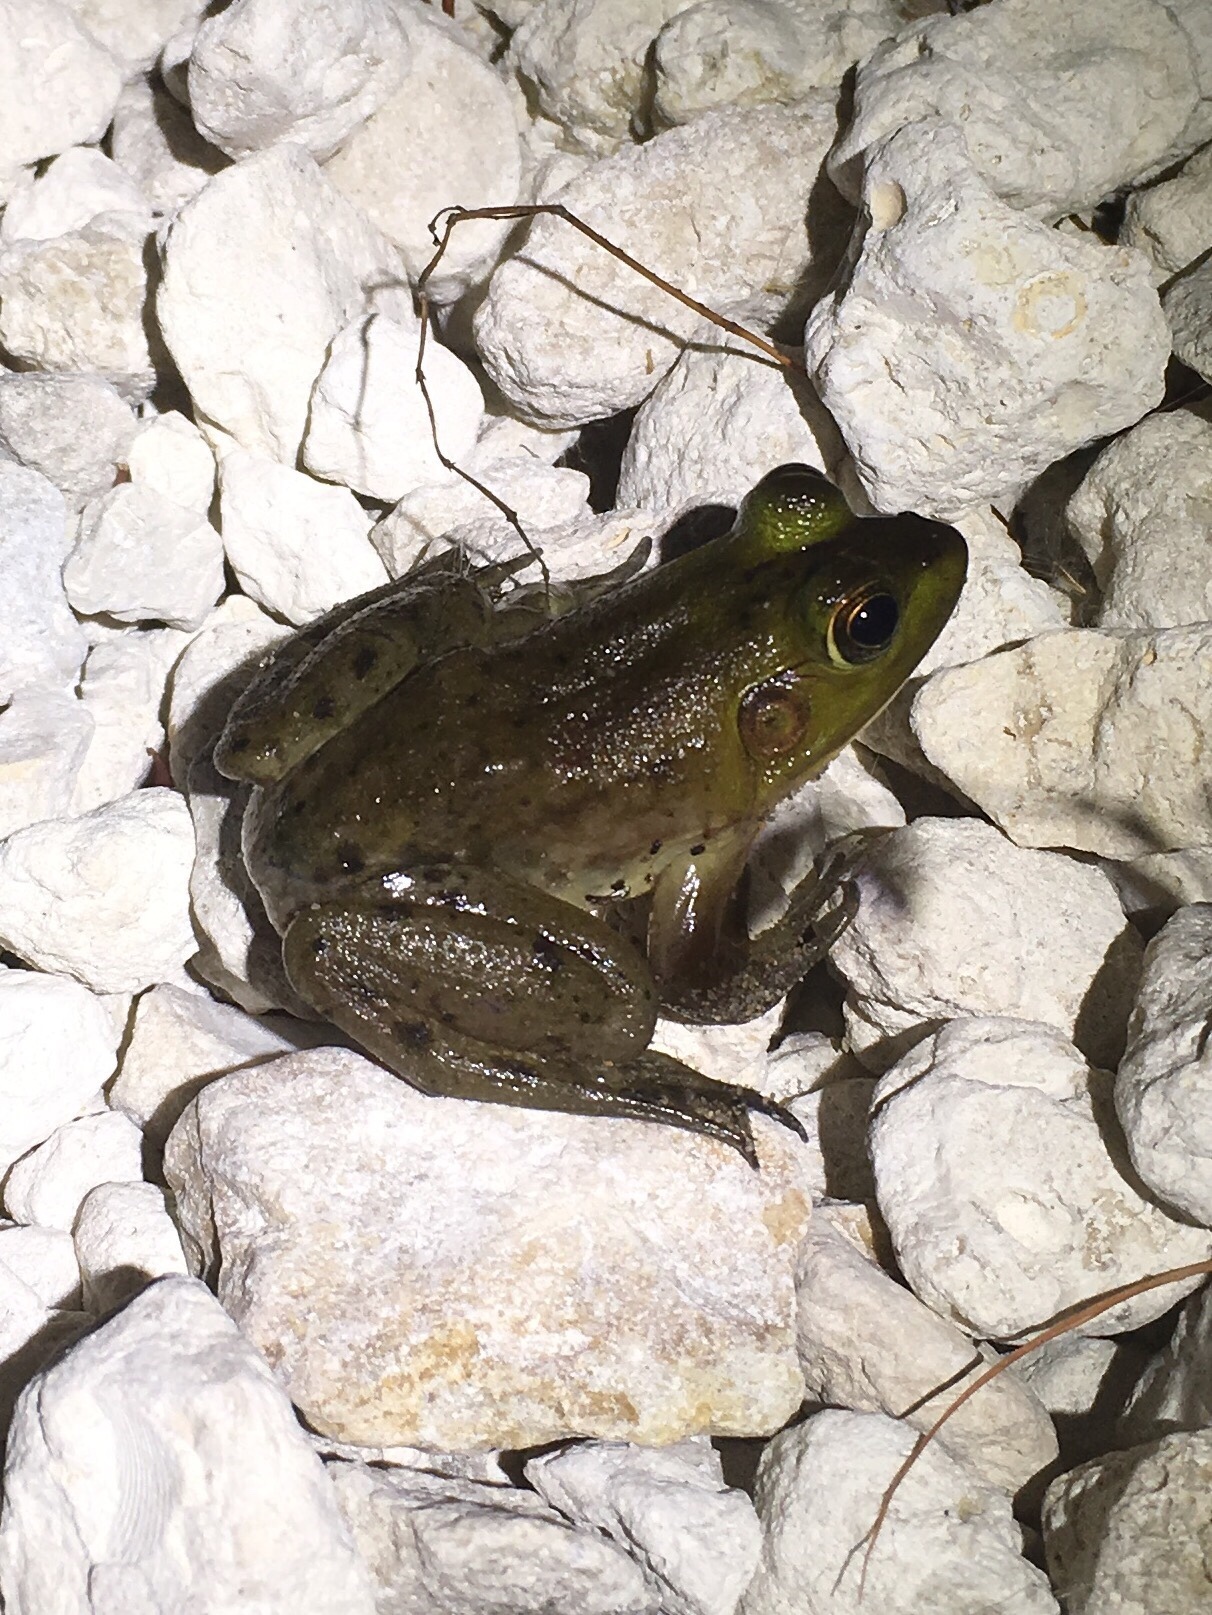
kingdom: Animalia
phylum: Chordata
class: Amphibia
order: Anura
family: Ranidae
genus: Lithobates
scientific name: Lithobates grylio
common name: Pig frog
